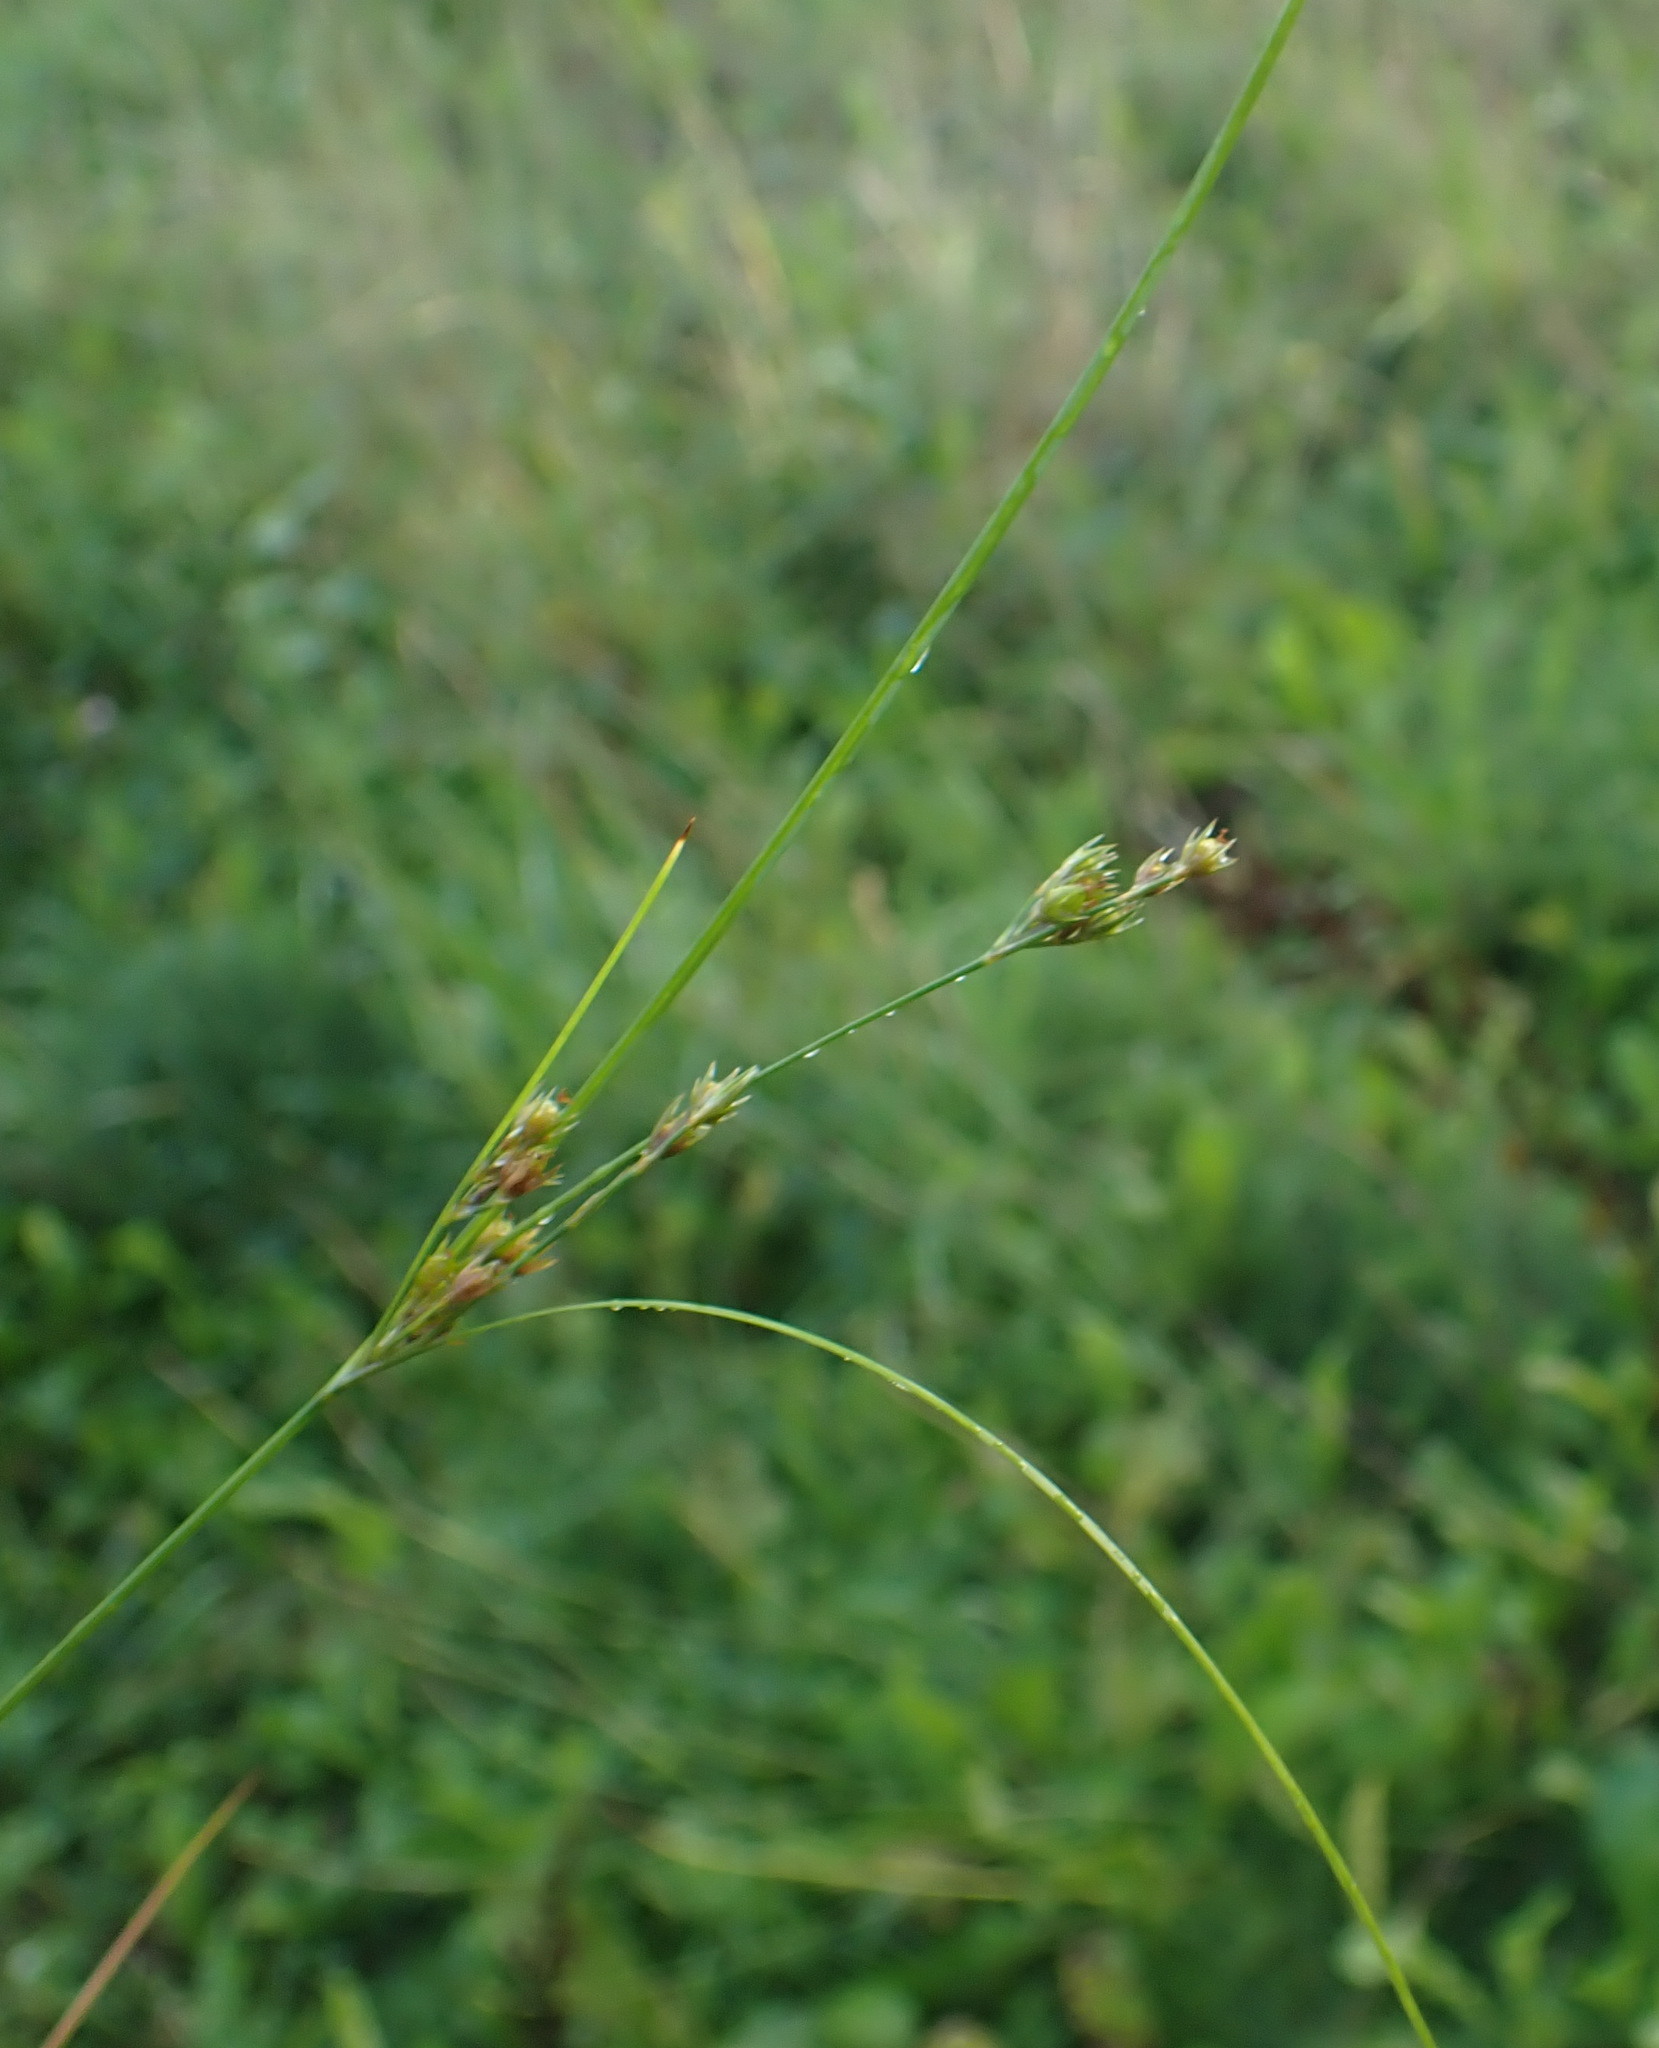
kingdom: Plantae
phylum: Tracheophyta
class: Liliopsida
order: Poales
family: Juncaceae
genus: Juncus
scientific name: Juncus tenuis
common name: Slender rush
